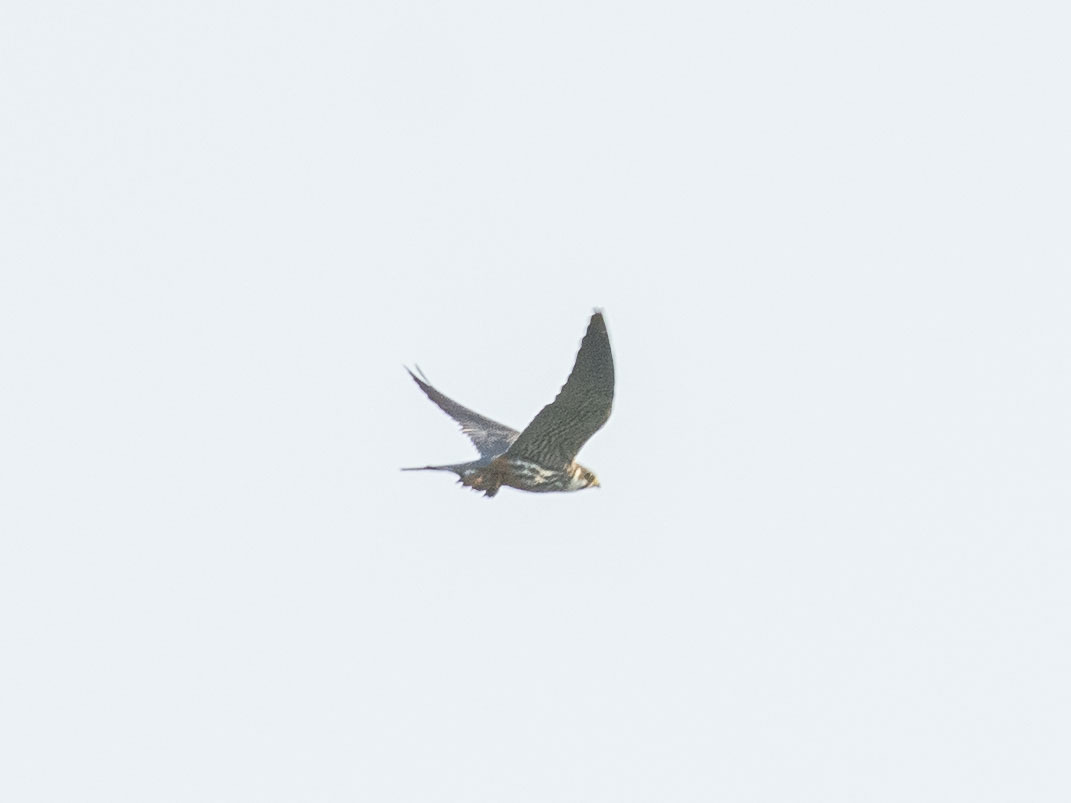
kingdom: Animalia
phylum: Chordata
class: Aves
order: Falconiformes
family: Falconidae
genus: Falco
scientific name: Falco subbuteo
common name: Eurasian hobby
